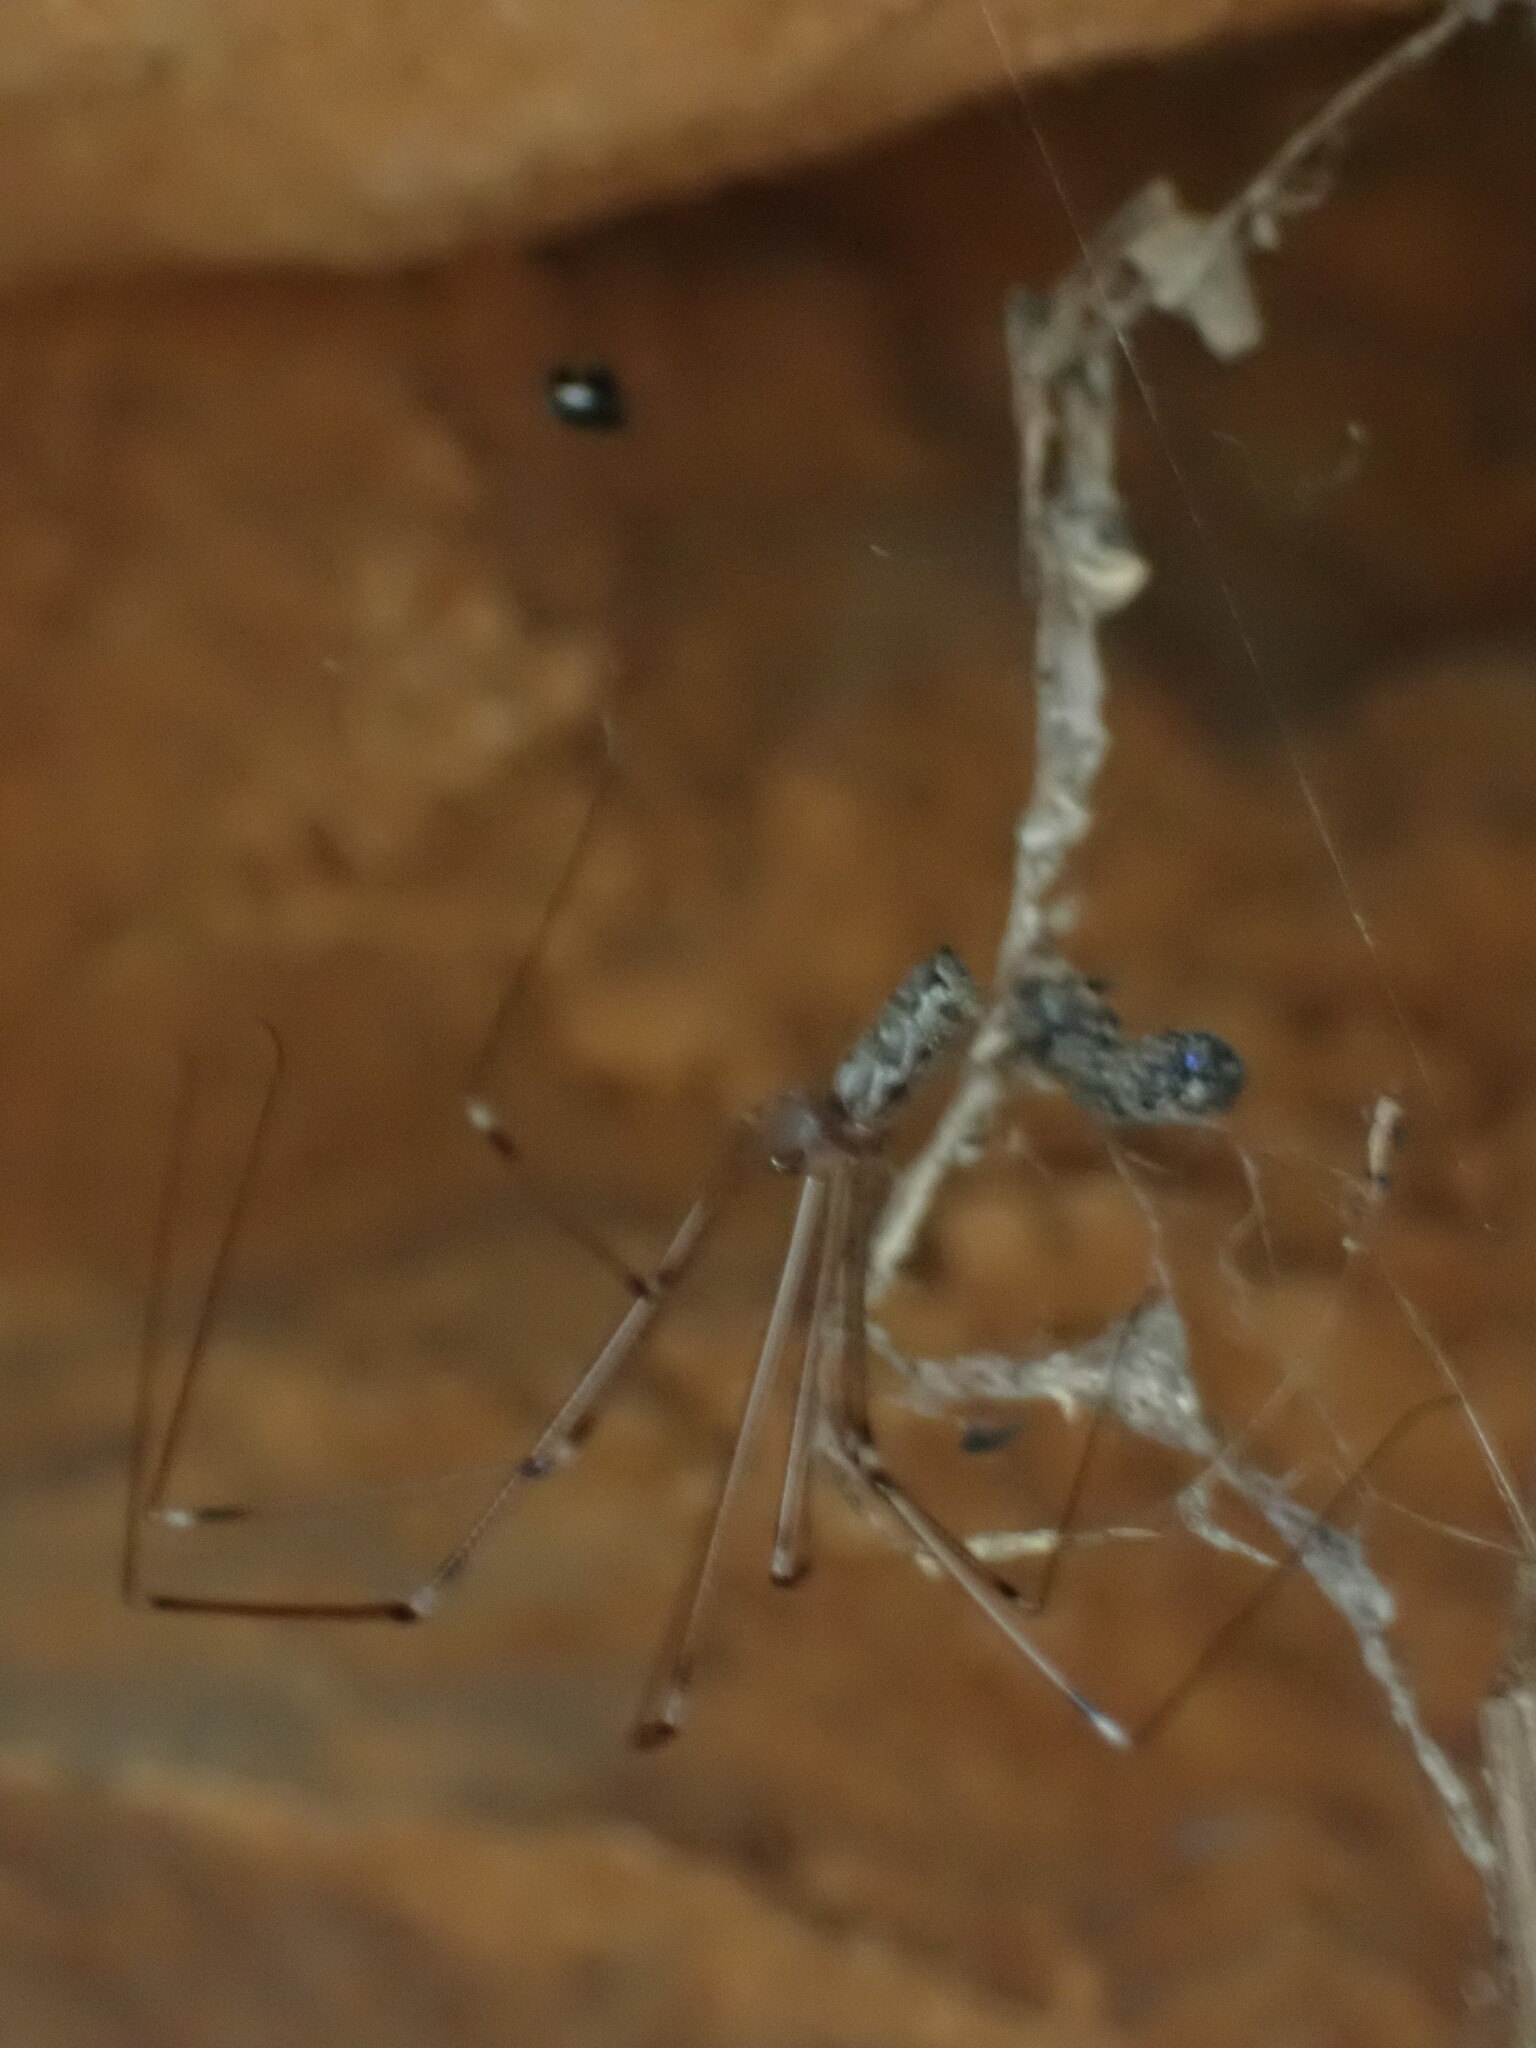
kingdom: Animalia
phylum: Arthropoda
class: Arachnida
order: Araneae
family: Pholcidae
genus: Holocnemus
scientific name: Holocnemus pluchei
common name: Marbled cellar spider
